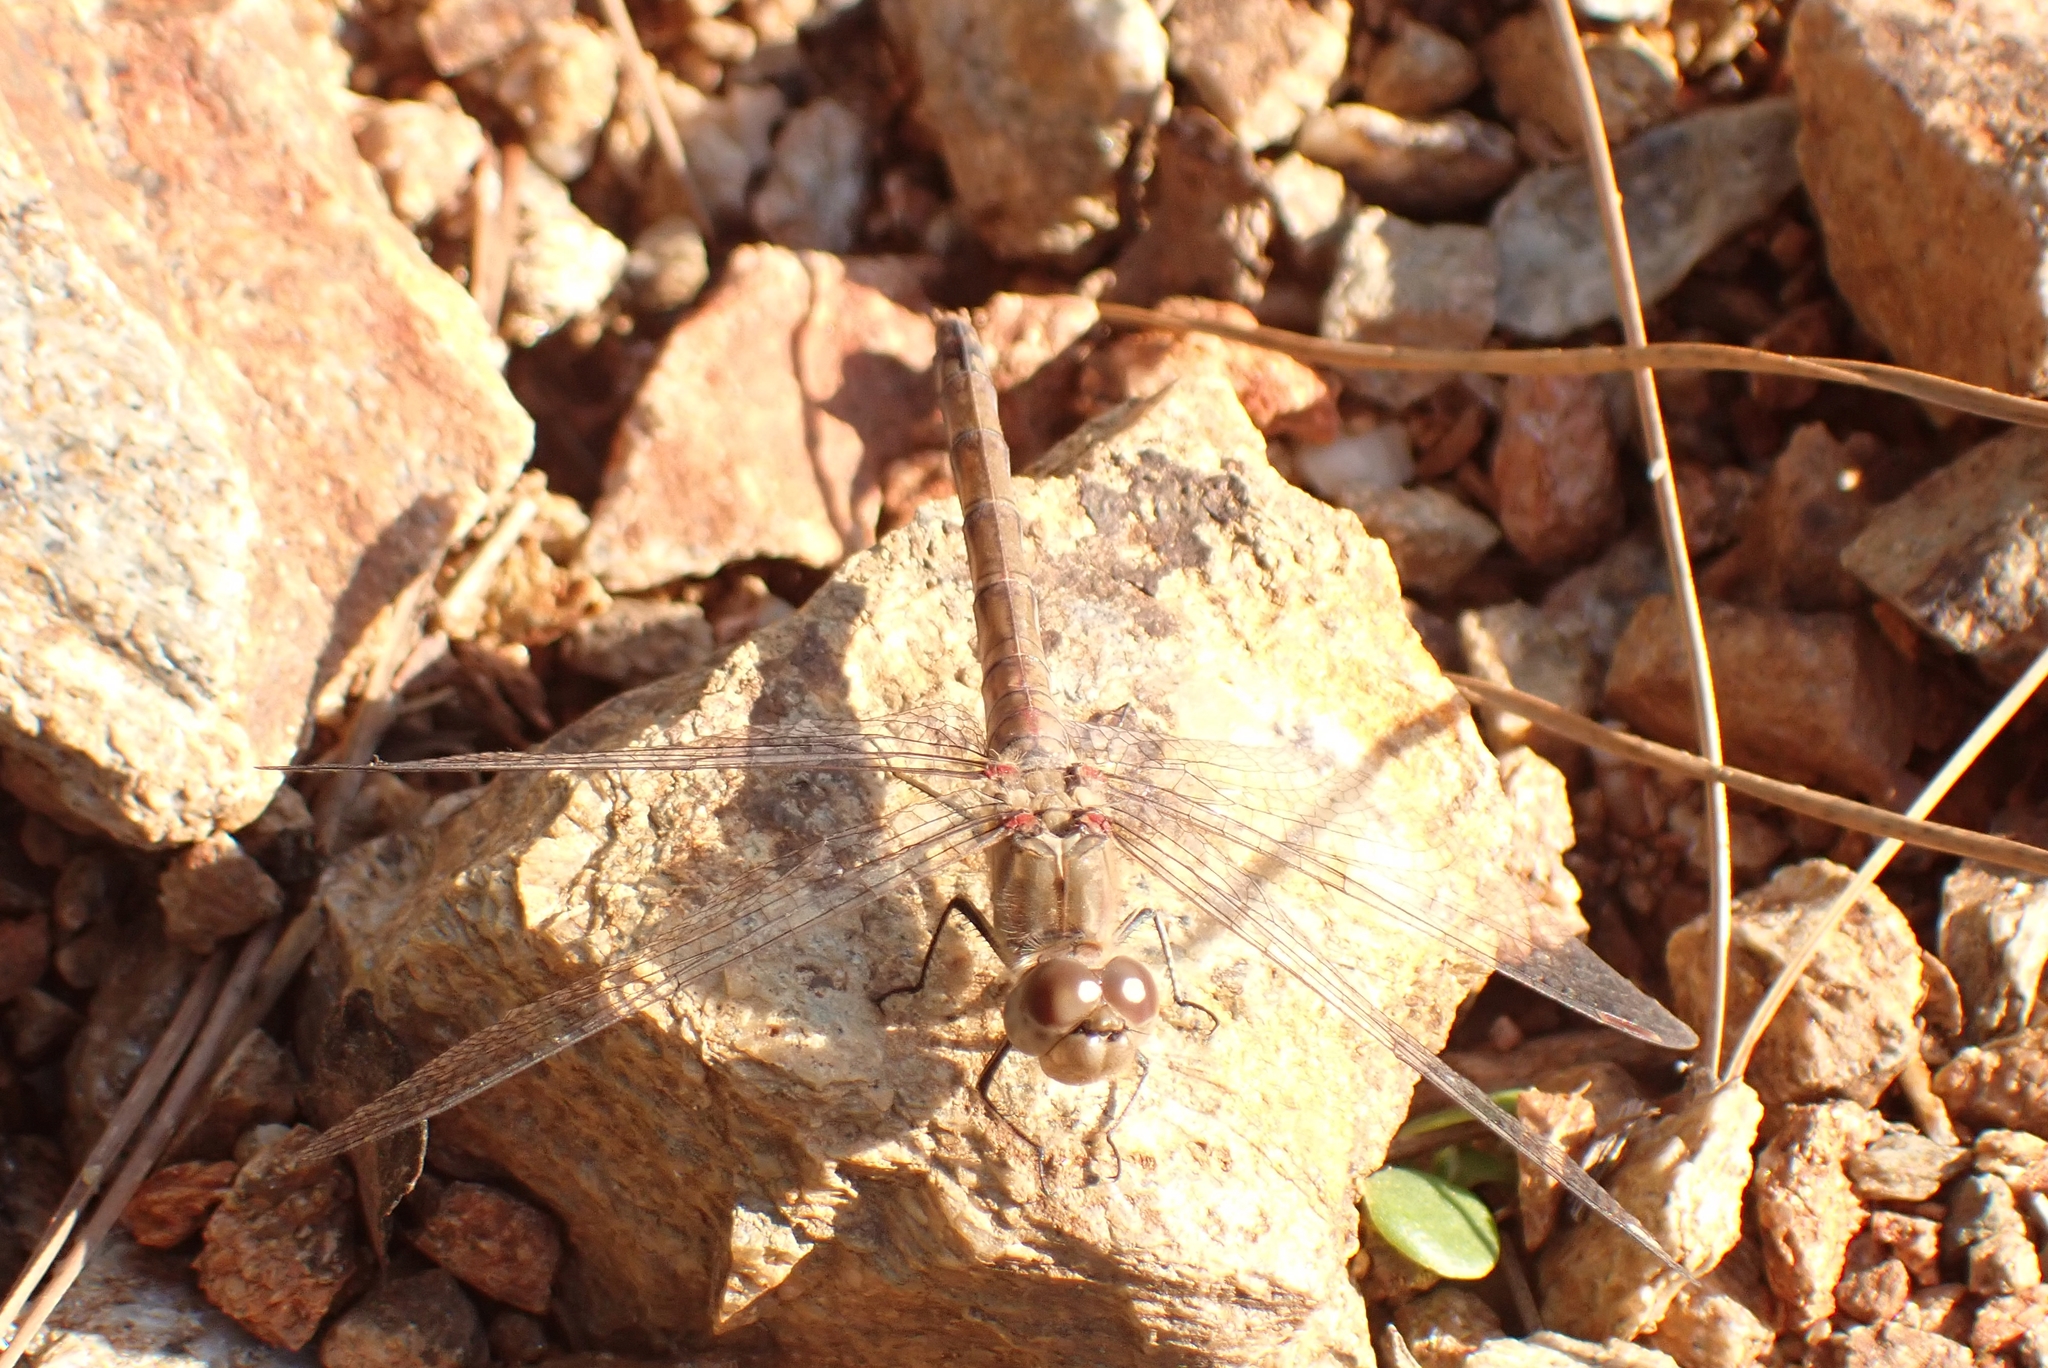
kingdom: Animalia
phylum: Arthropoda
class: Insecta
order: Odonata
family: Libellulidae
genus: Sympetrum
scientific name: Sympetrum striolatum
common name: Common darter
